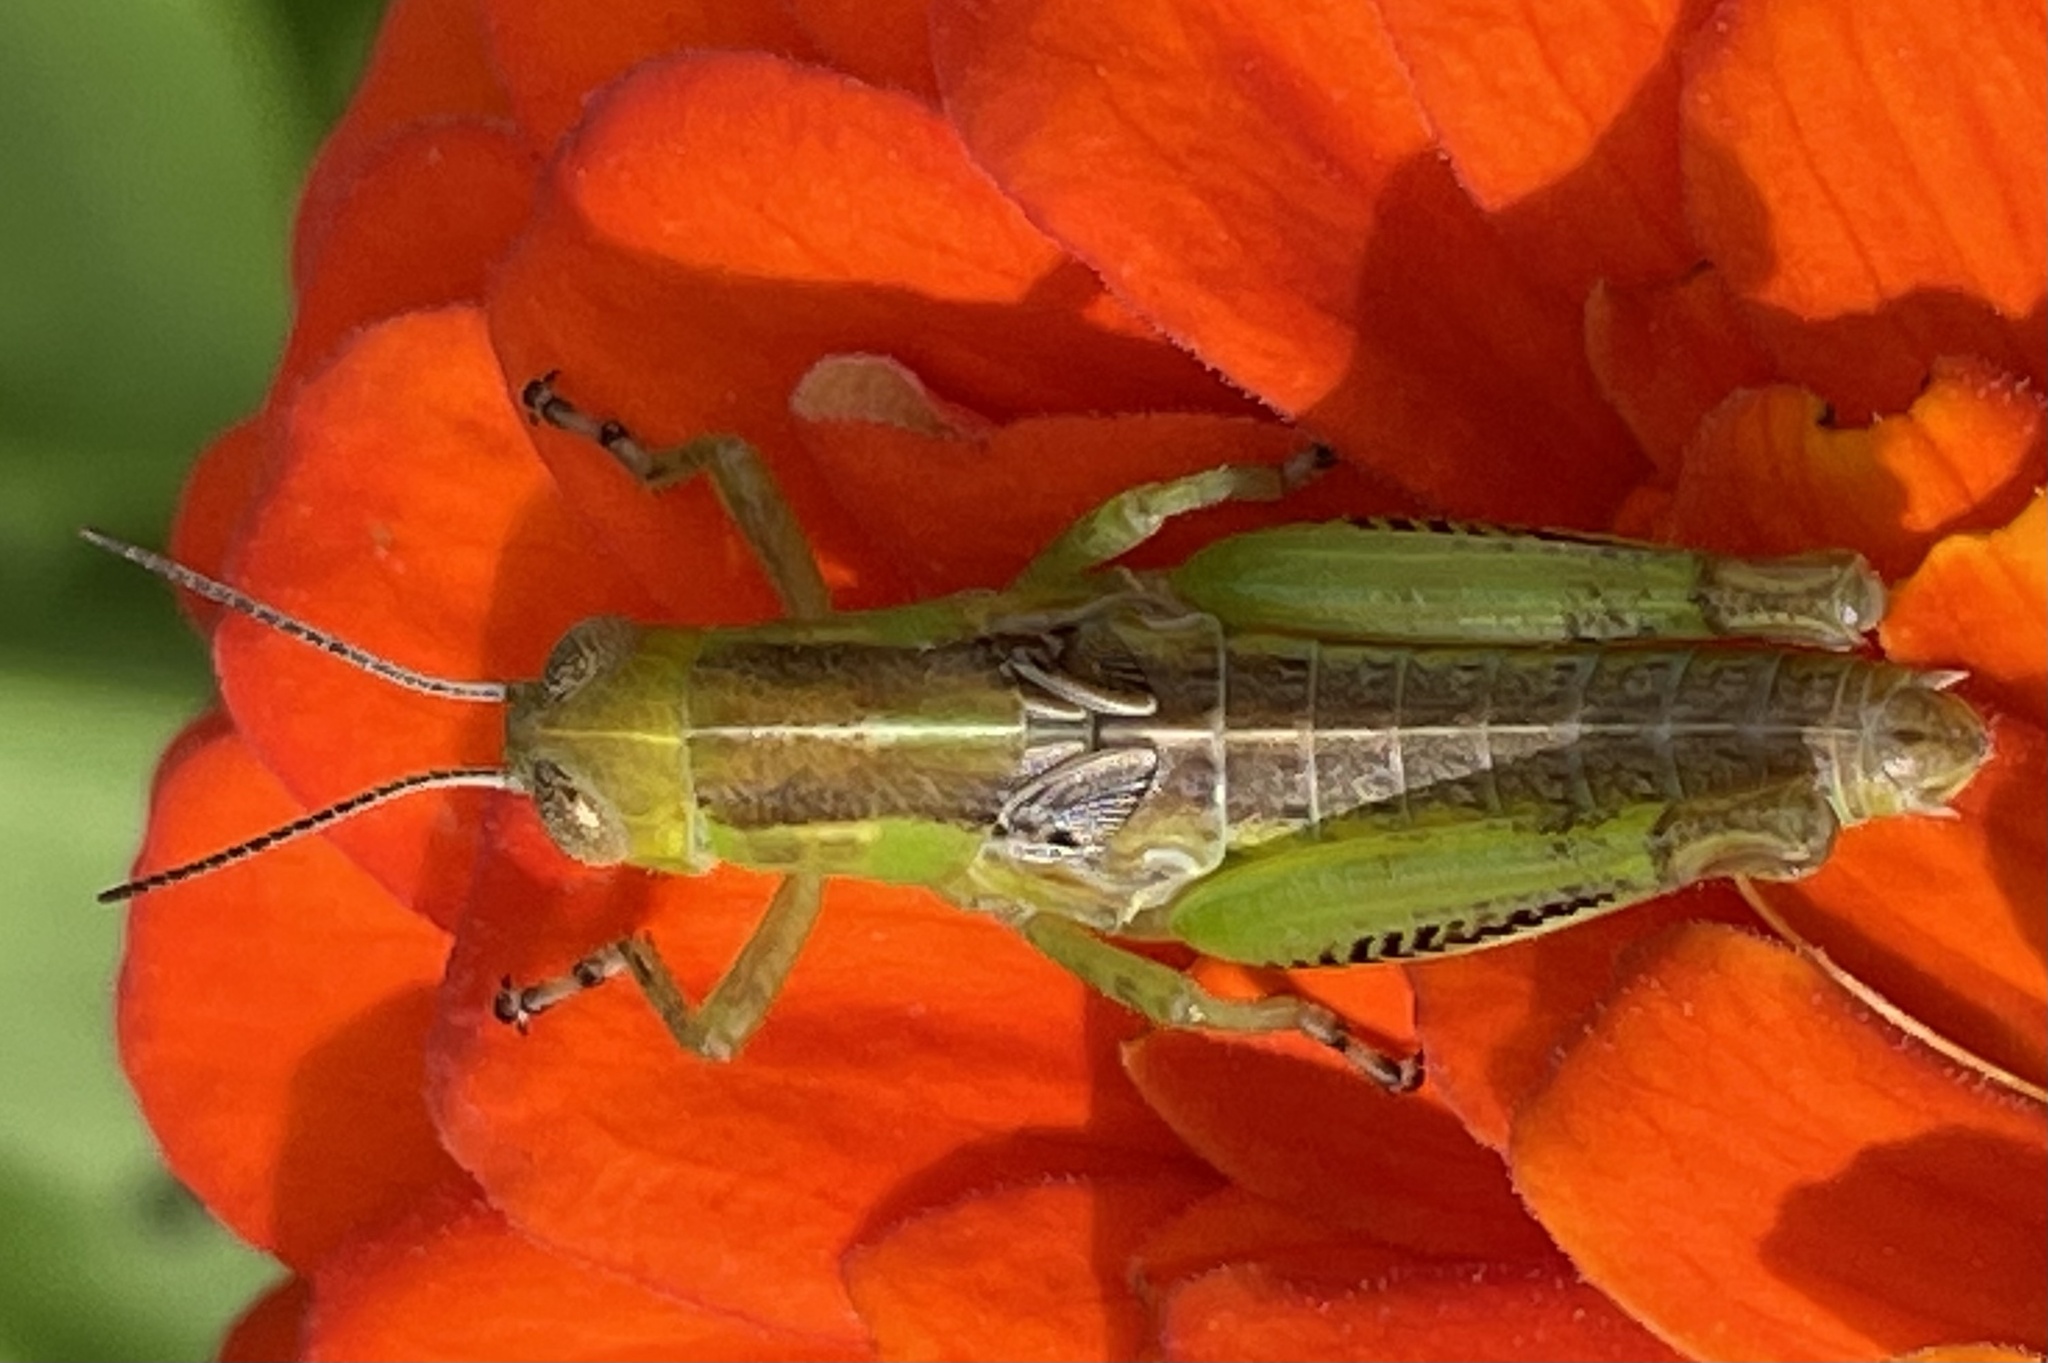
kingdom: Animalia
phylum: Arthropoda
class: Insecta
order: Orthoptera
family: Acrididae
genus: Melanoplus
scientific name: Melanoplus differentialis
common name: Differential grasshopper
